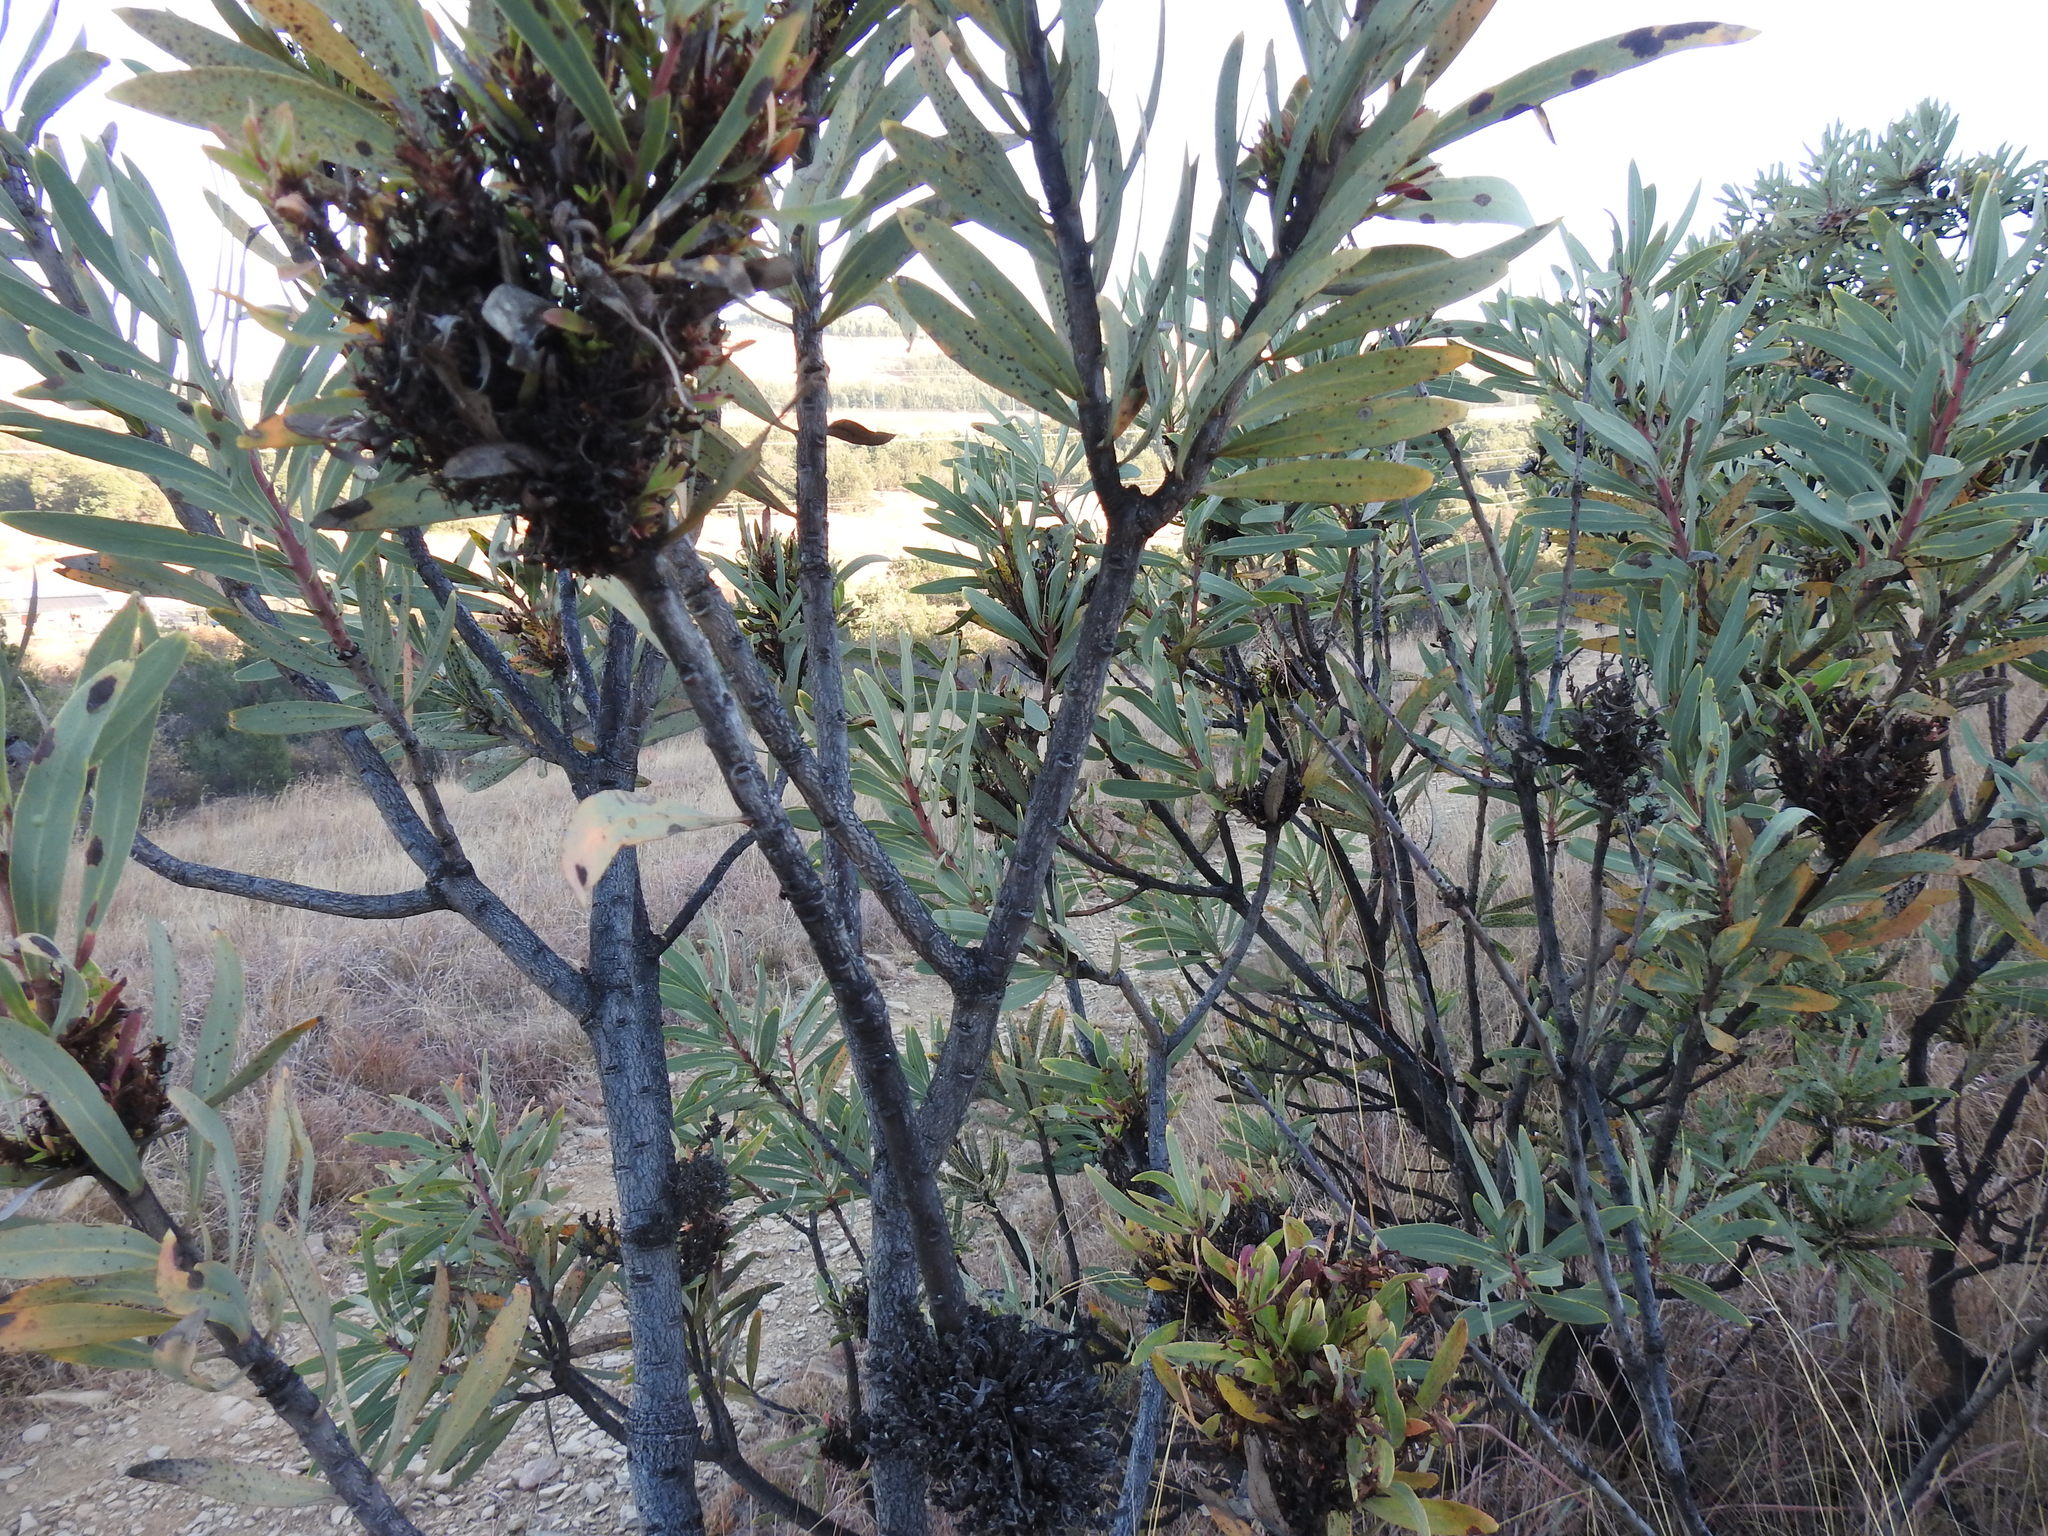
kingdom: Bacteria
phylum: Firmicutes
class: Bacilli
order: Acholeplasmatales
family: Acholeplasmataceae
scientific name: Acholeplasmataceae
